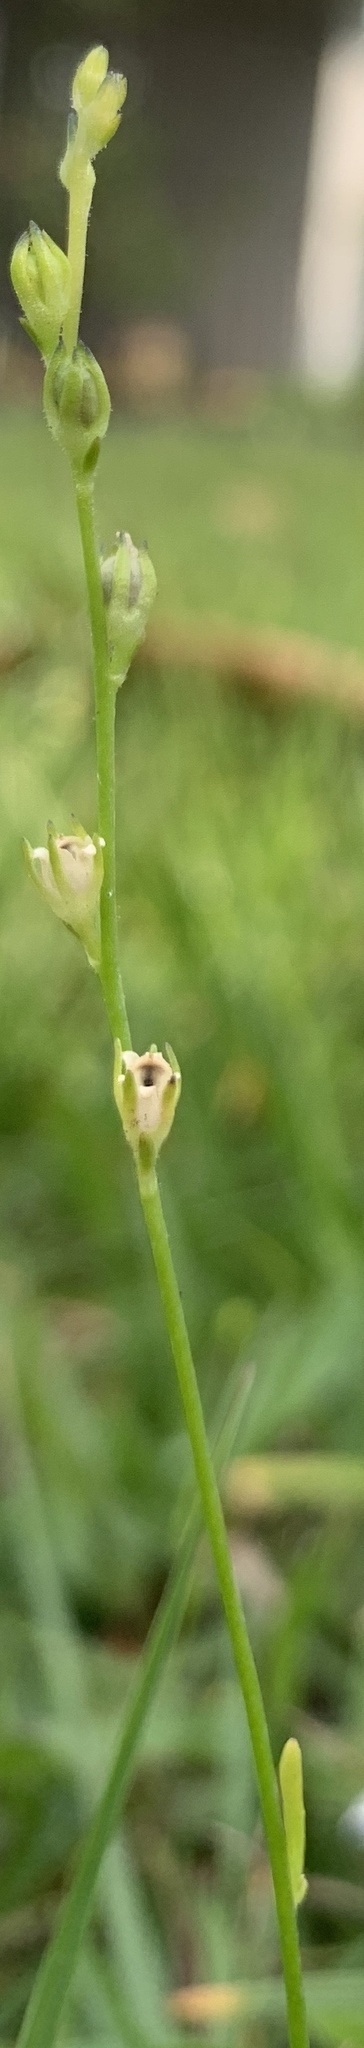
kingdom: Plantae
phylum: Tracheophyta
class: Magnoliopsida
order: Lamiales
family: Plantaginaceae
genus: Nuttallanthus
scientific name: Nuttallanthus canadensis
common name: Blue toadflax
